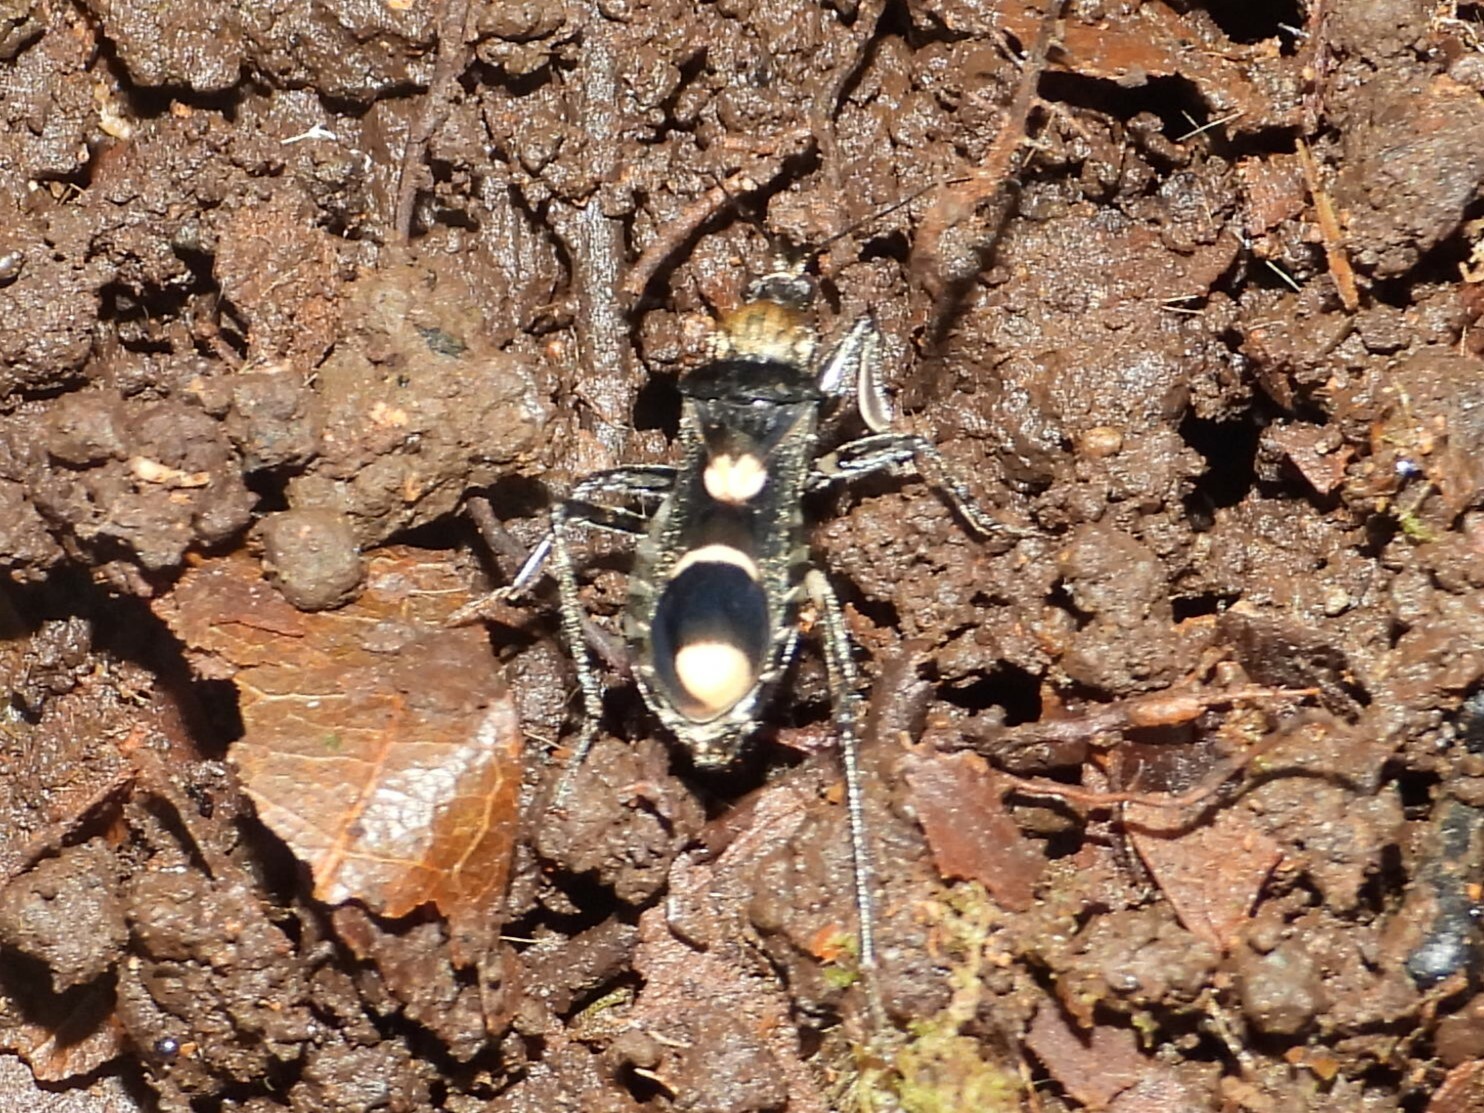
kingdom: Animalia
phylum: Arthropoda
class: Insecta
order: Hemiptera
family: Reduviidae
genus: Rasahus
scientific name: Rasahus arcuiger
